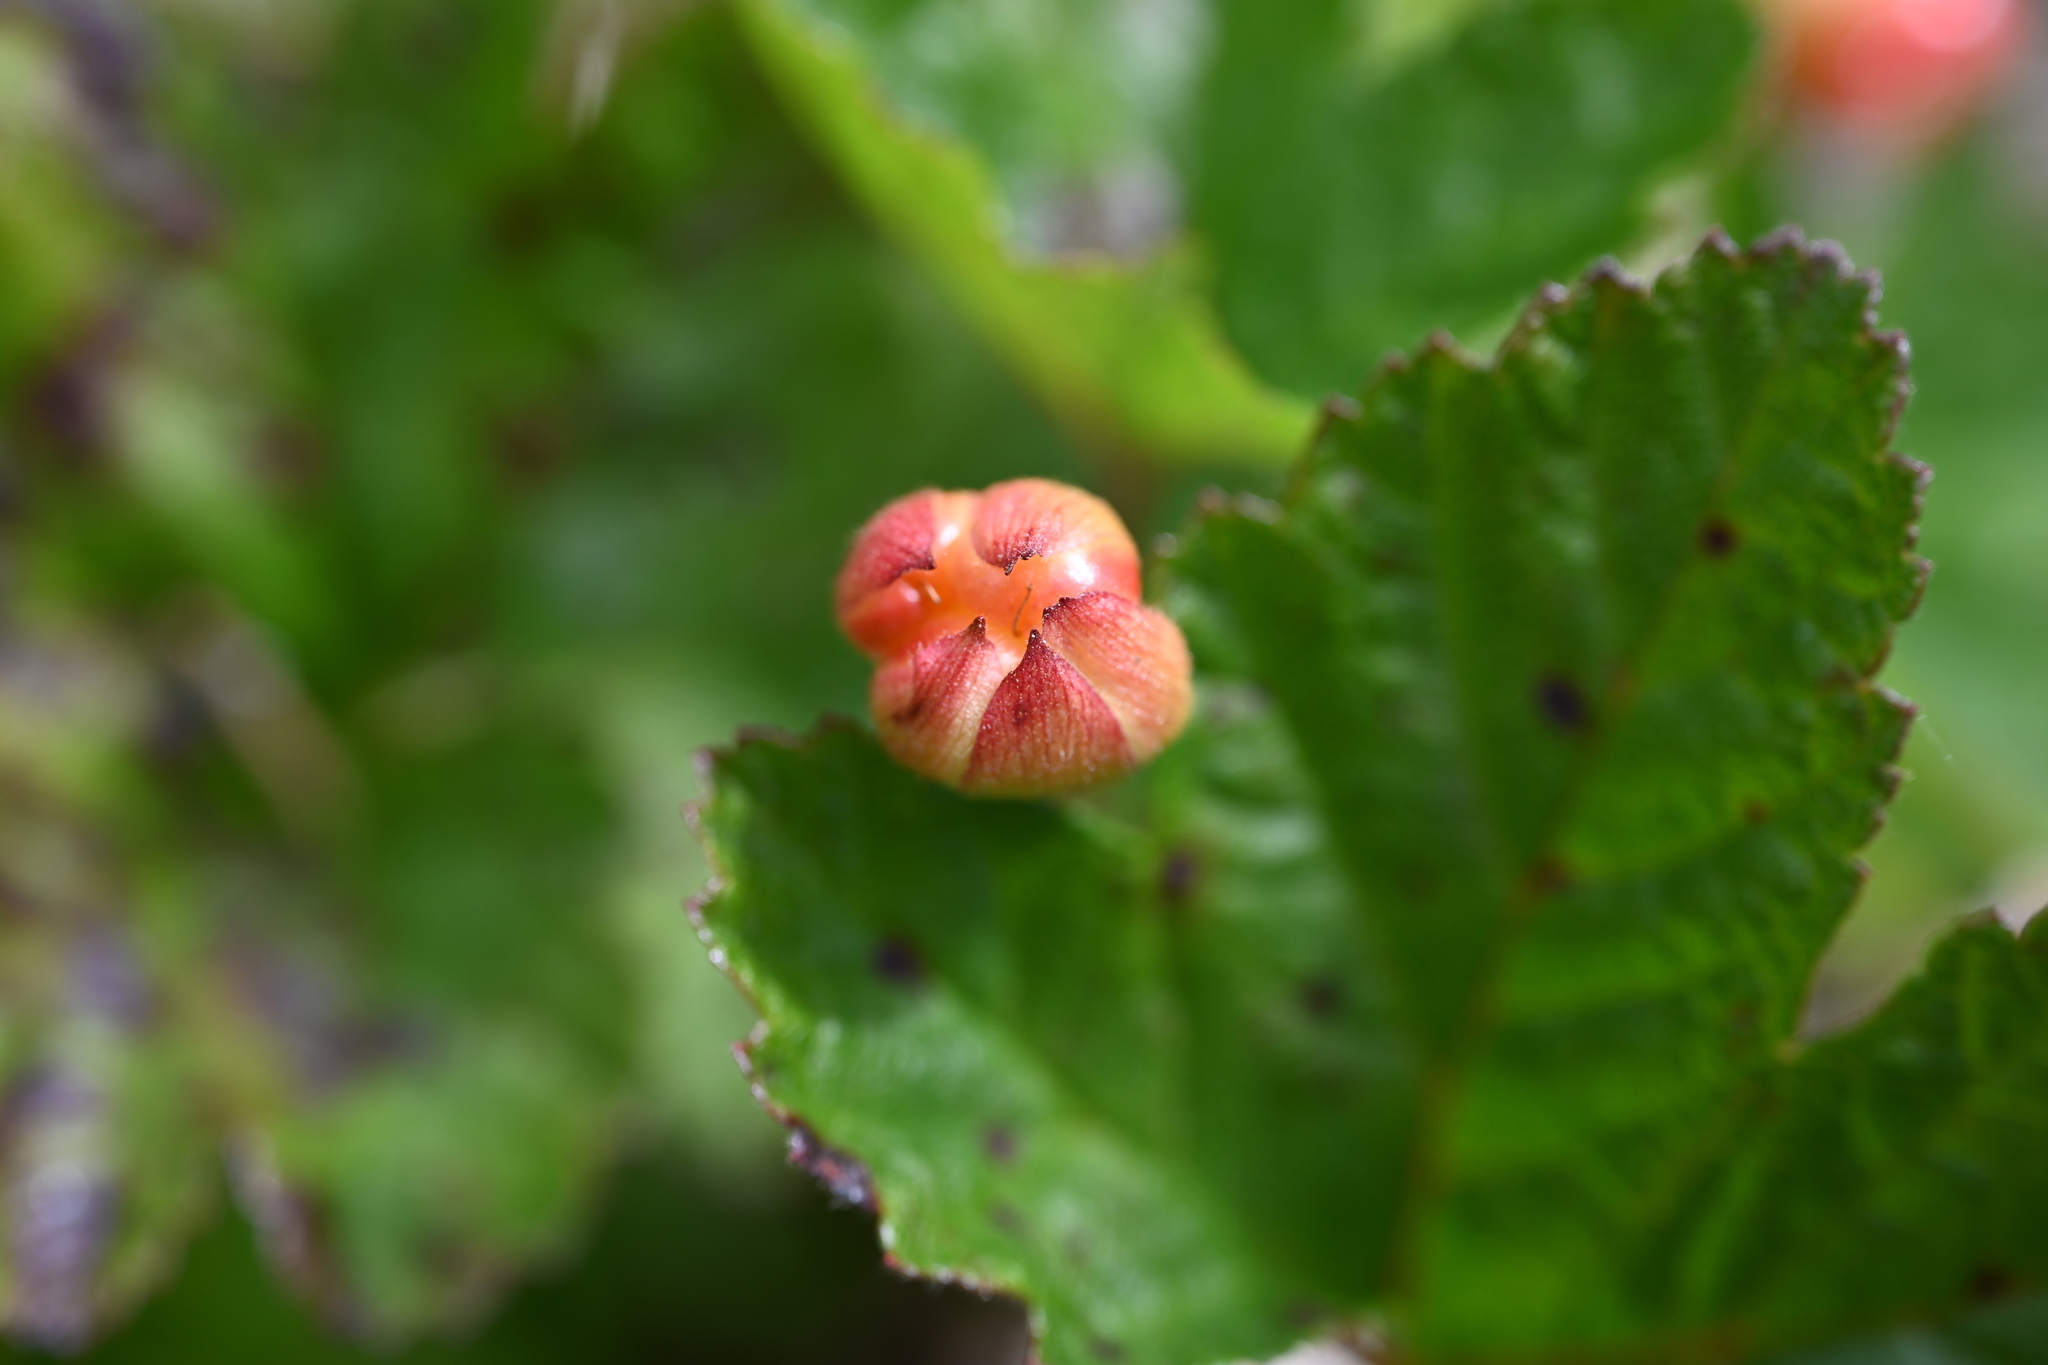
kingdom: Plantae
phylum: Tracheophyta
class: Magnoliopsida
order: Rosales
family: Rosaceae
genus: Rubus
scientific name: Rubus chamaemorus
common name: Cloudberry
